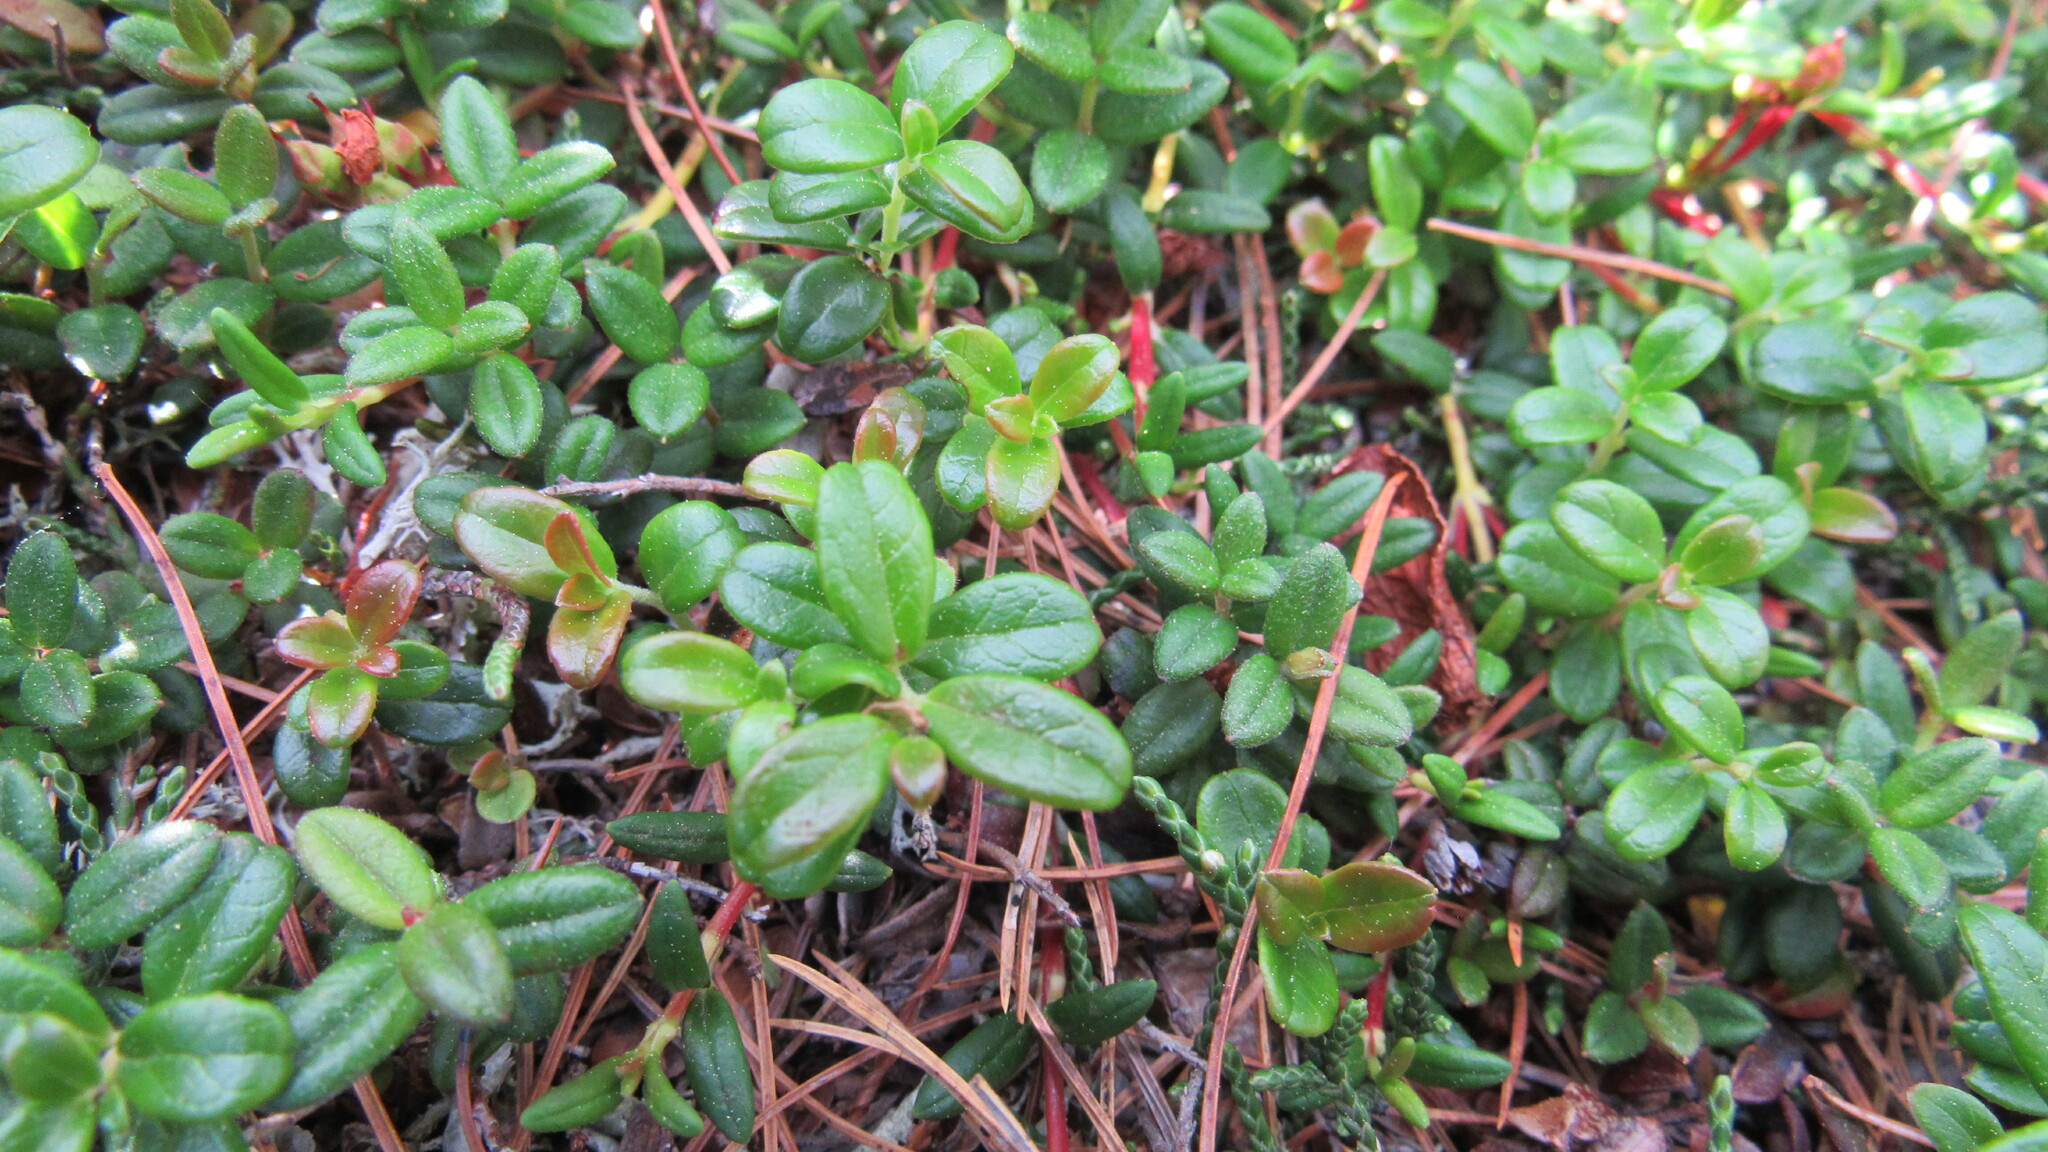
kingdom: Plantae
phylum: Tracheophyta
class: Magnoliopsida
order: Ericales
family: Ericaceae
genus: Vaccinium
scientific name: Vaccinium vitis-idaea
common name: Cowberry
